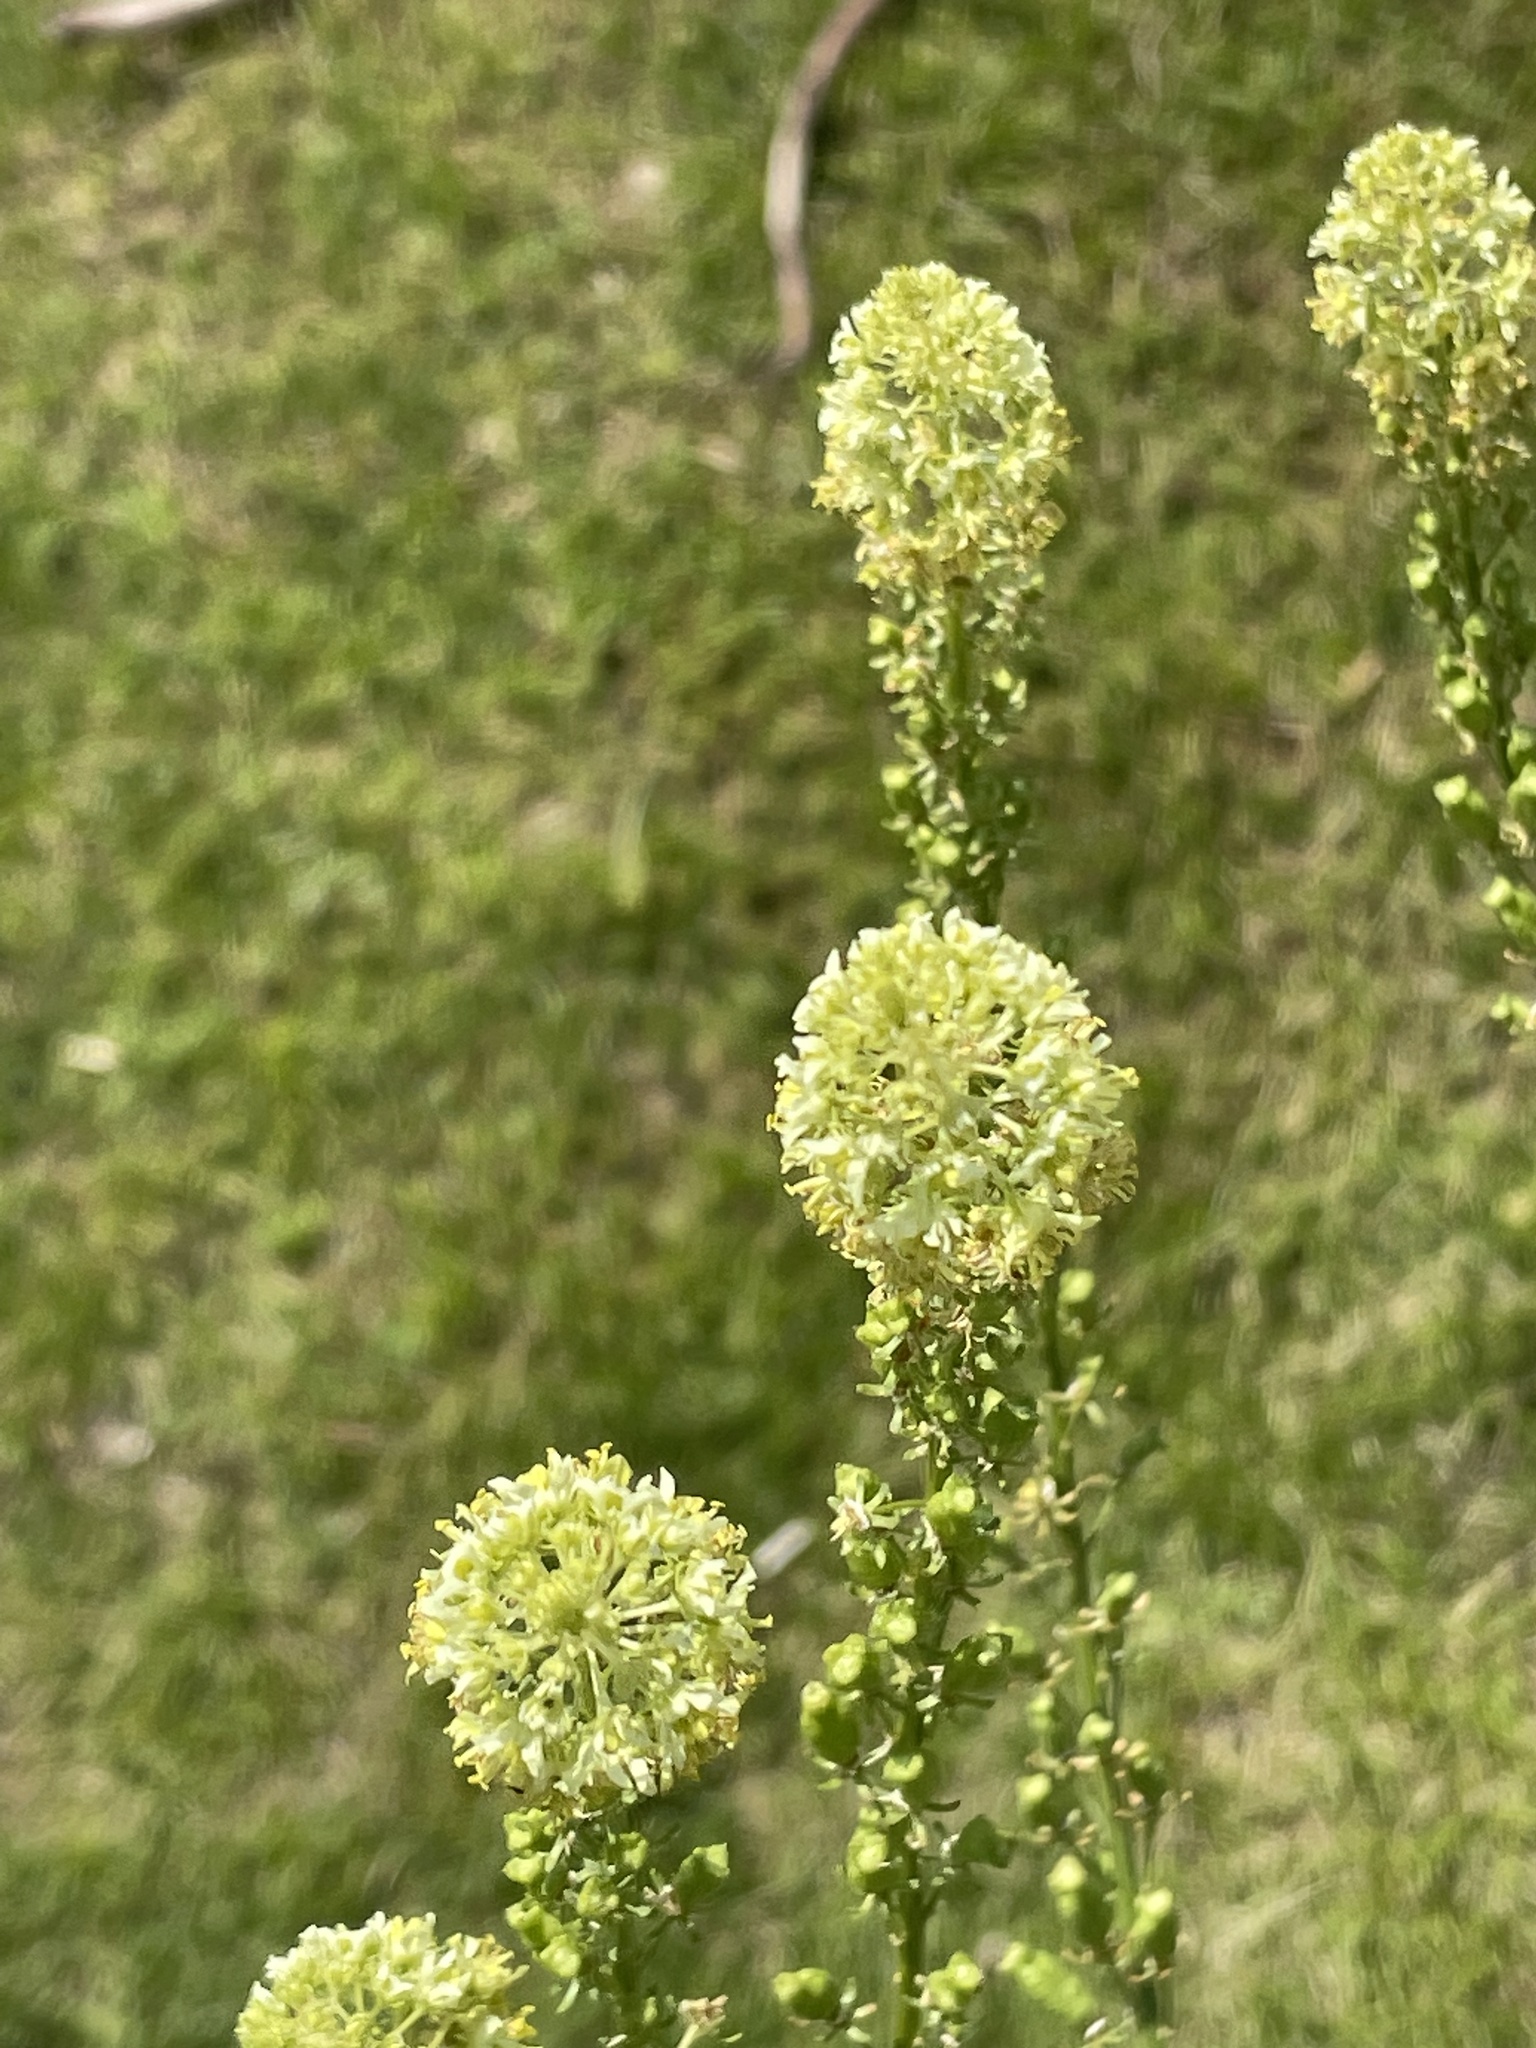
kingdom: Plantae
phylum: Tracheophyta
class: Magnoliopsida
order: Brassicales
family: Resedaceae
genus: Reseda
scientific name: Reseda lutea
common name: Wild mignonette
